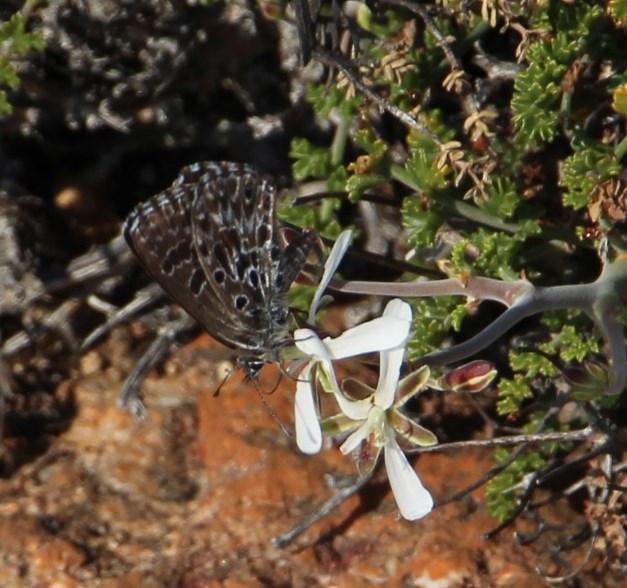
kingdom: Animalia
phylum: Arthropoda
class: Insecta
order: Lepidoptera
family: Lycaenidae
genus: Lepidochrysops
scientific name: Lepidochrysops penningtoni
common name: Arid nimble blue
